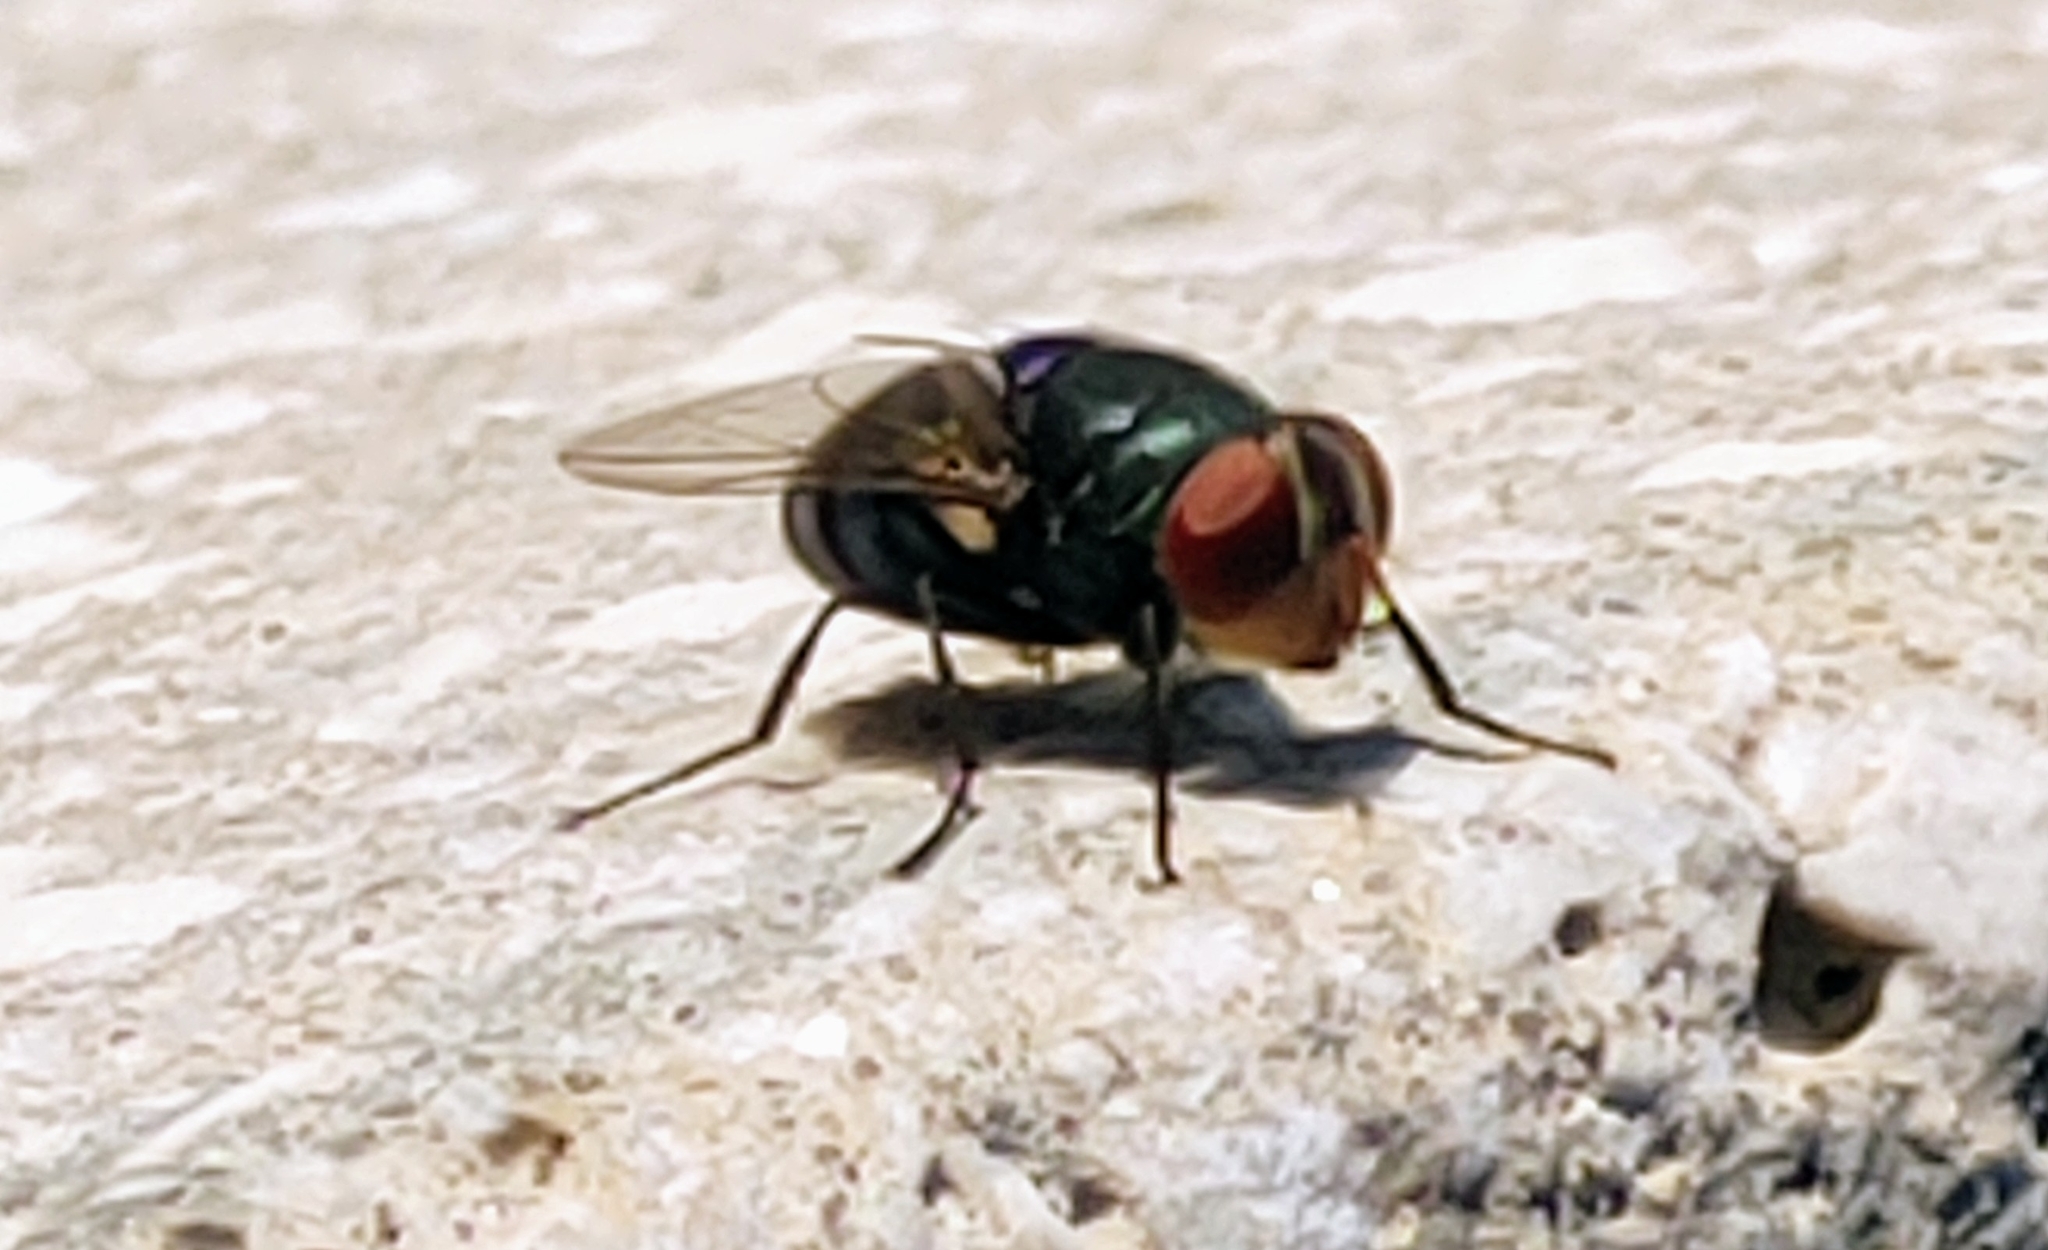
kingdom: Animalia
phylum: Arthropoda
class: Insecta
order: Diptera
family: Calliphoridae
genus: Chrysomya
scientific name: Chrysomya megacephala
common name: Blow fly
